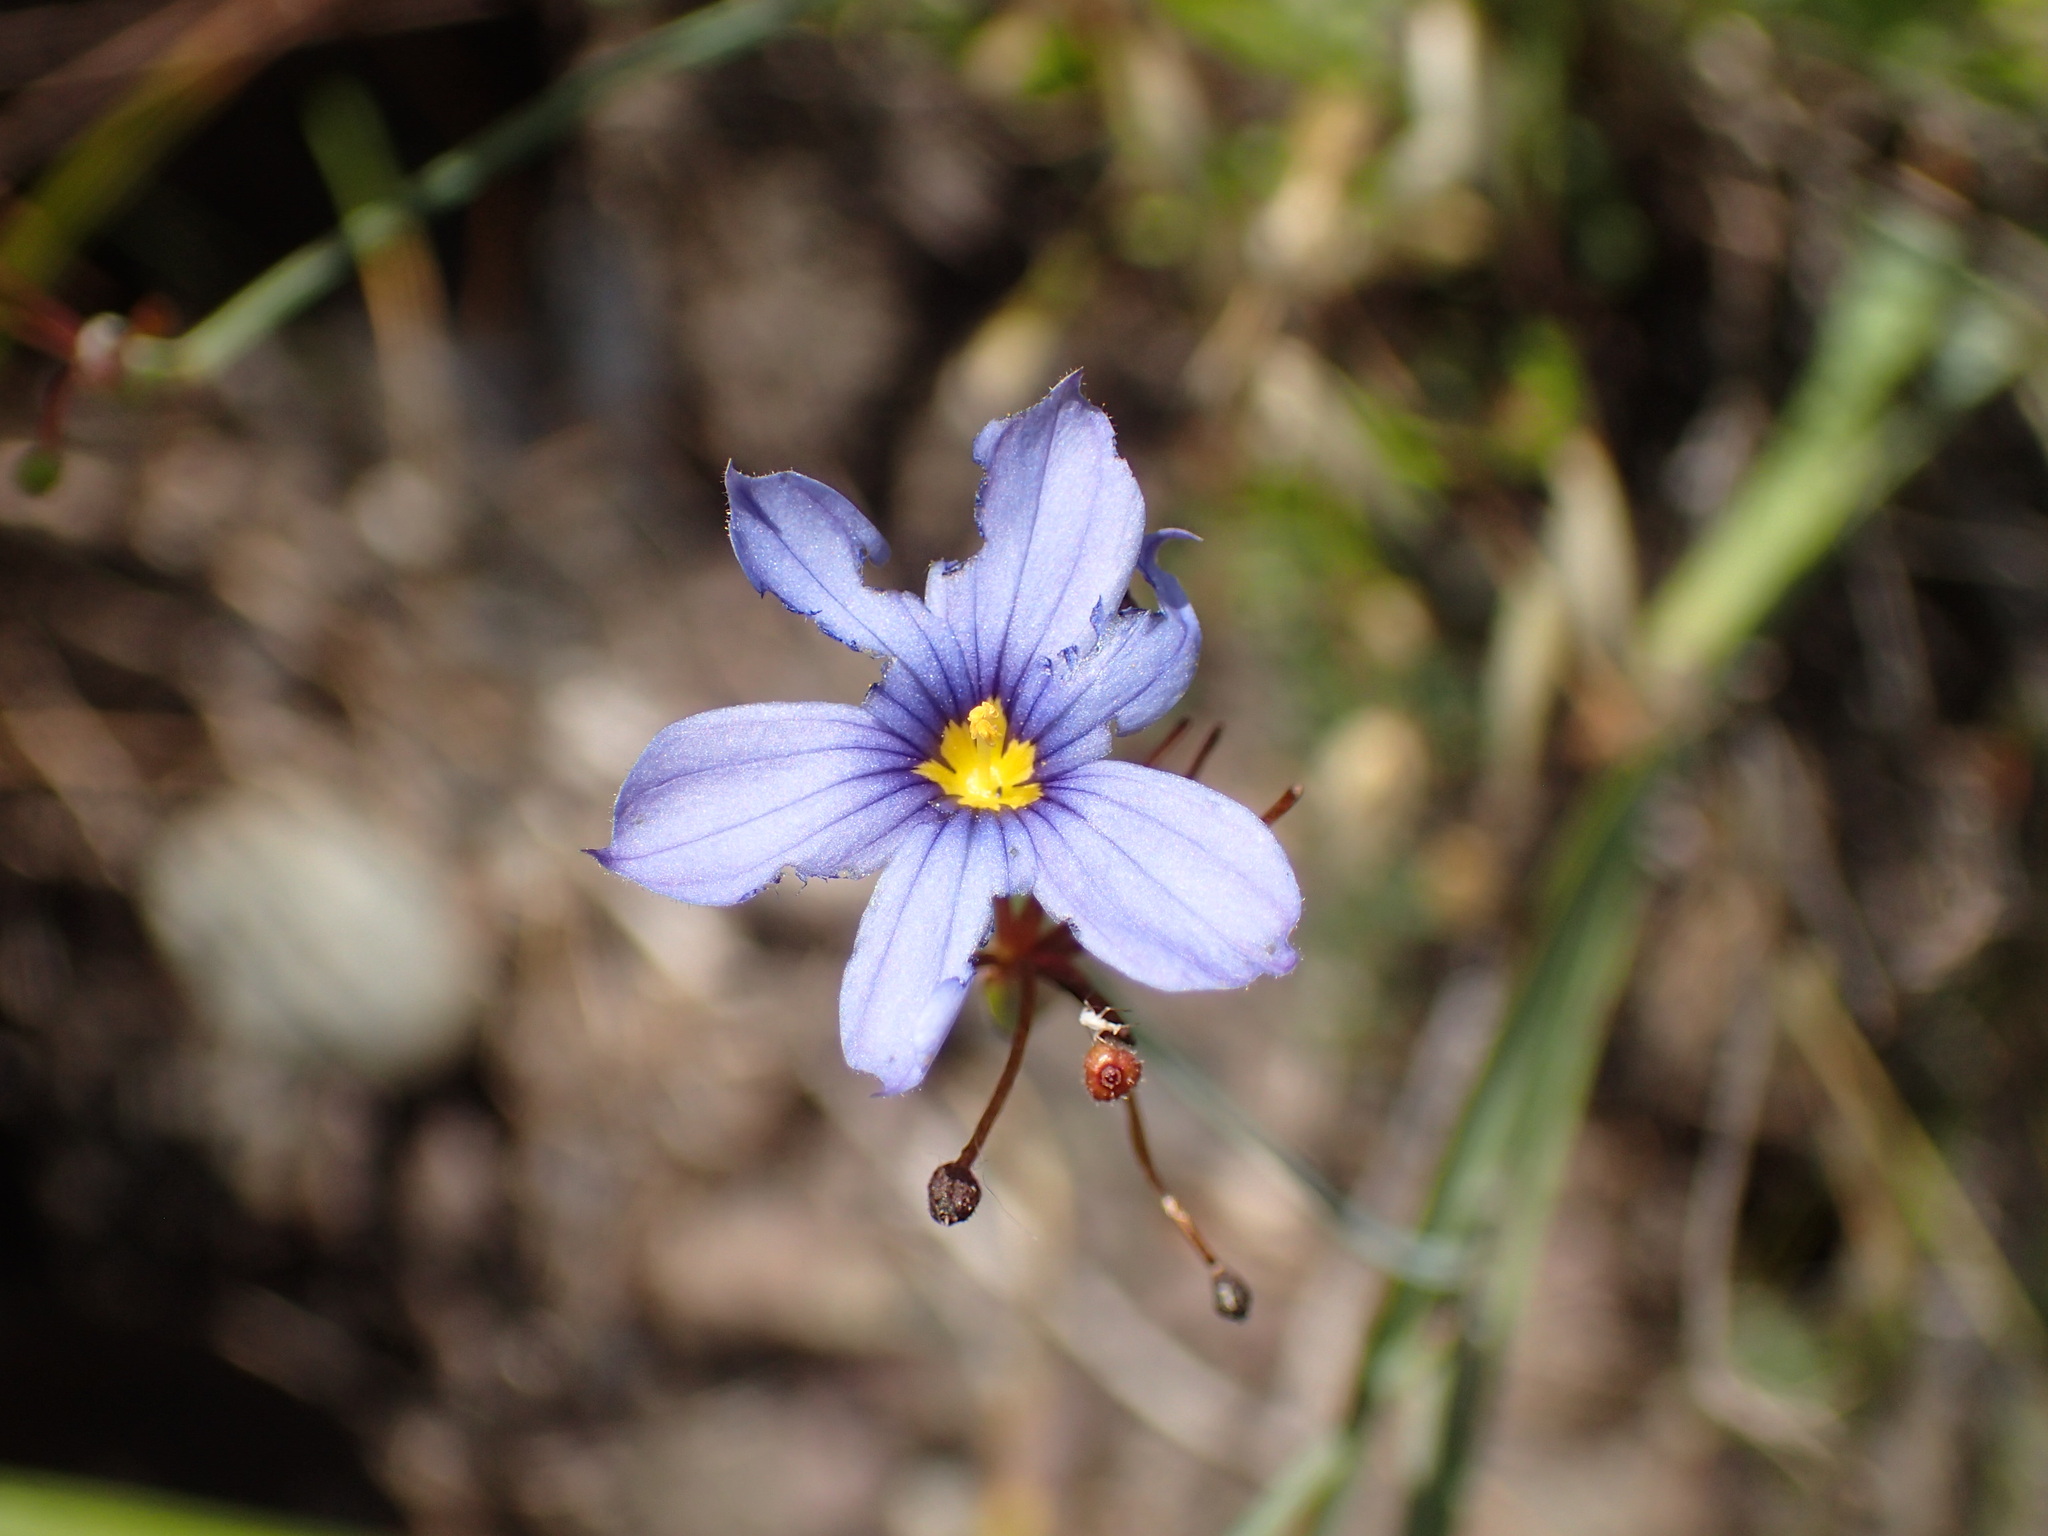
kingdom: Plantae
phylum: Tracheophyta
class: Liliopsida
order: Asparagales
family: Iridaceae
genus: Sisyrinchium
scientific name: Sisyrinchium bellum
